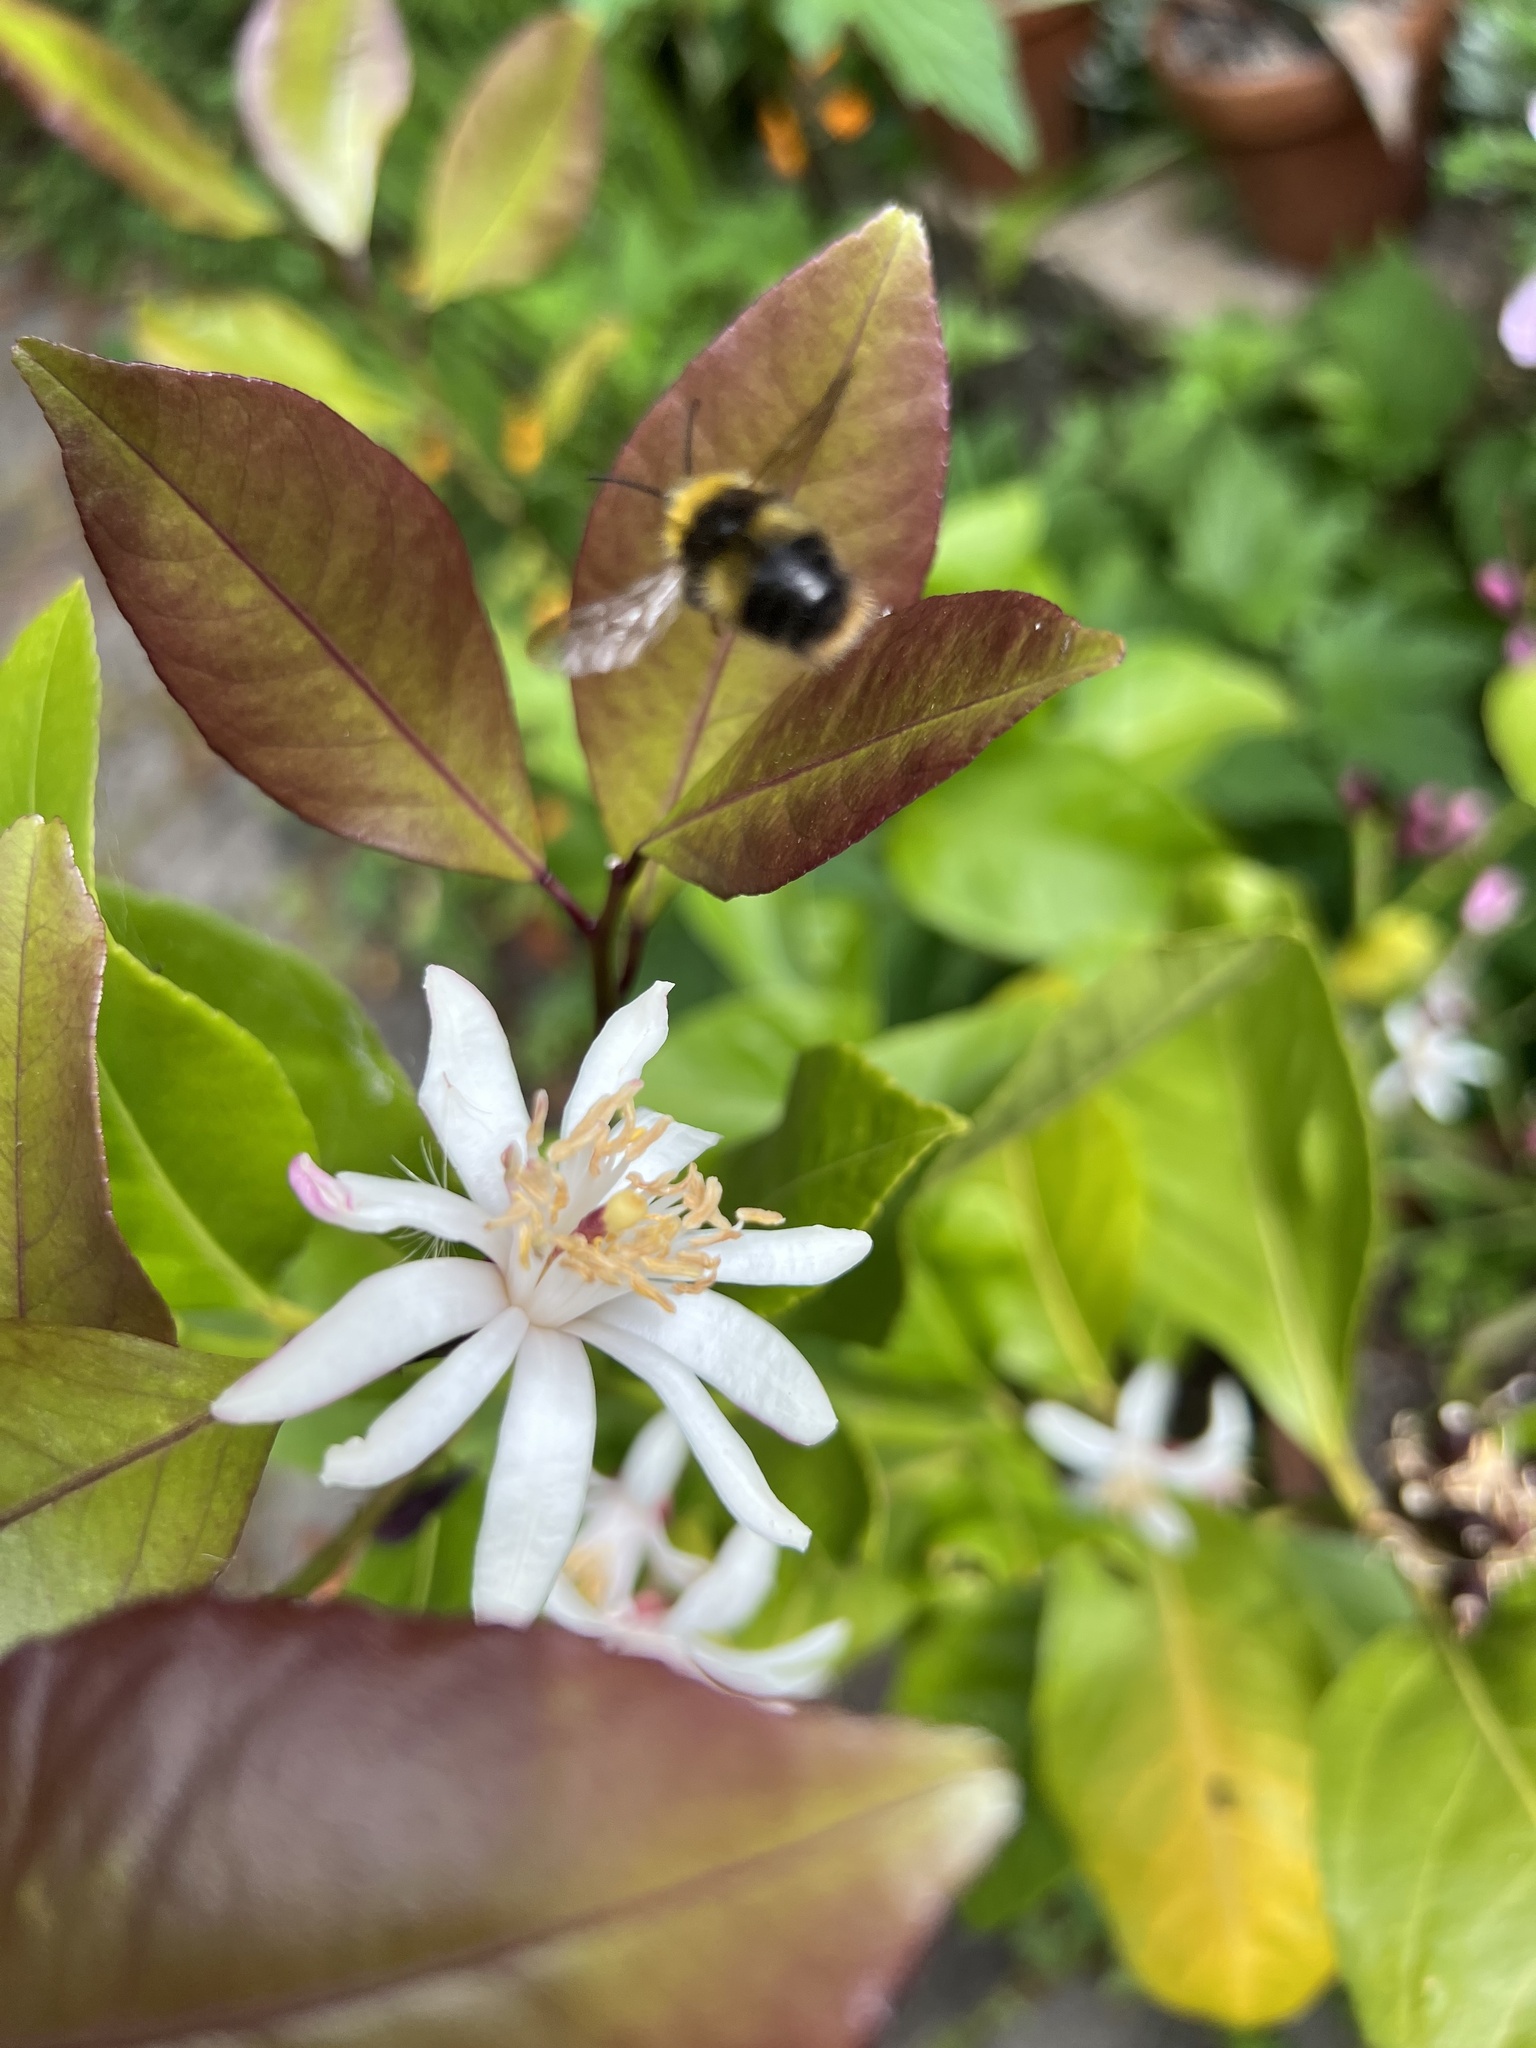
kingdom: Animalia
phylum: Arthropoda
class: Insecta
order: Hymenoptera
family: Apidae
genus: Bombus
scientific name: Bombus pratorum
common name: Early humble-bee
